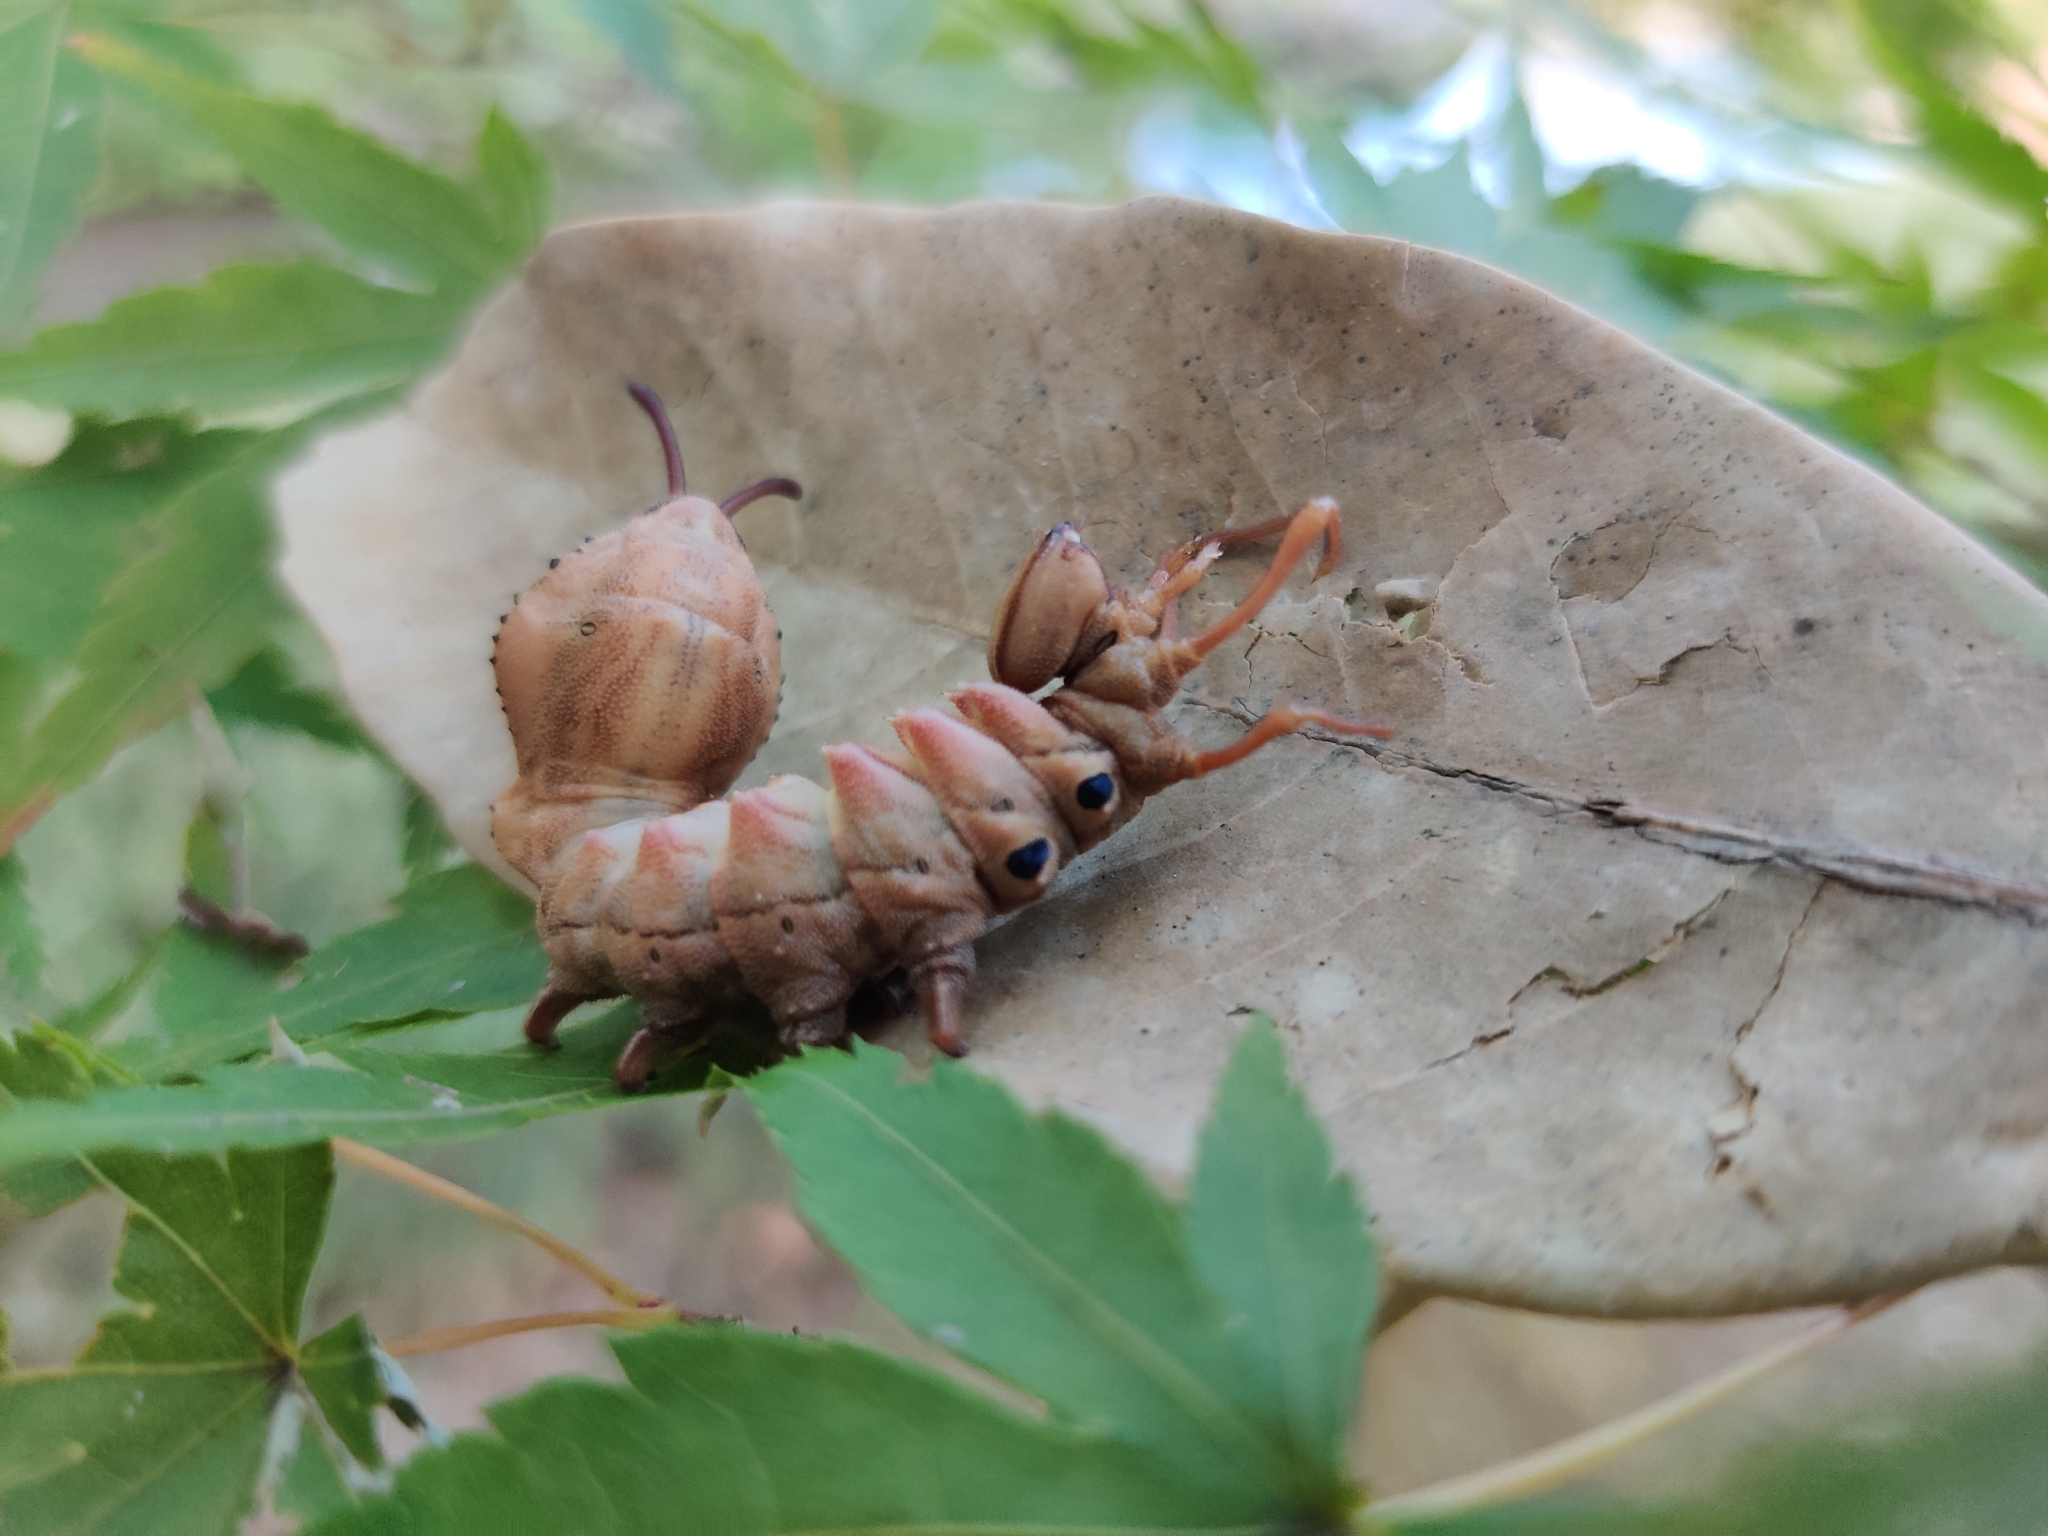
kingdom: Animalia
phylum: Arthropoda
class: Insecta
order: Lepidoptera
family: Notodontidae
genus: Stauropus
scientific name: Stauropus fagi
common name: Lobster moth
